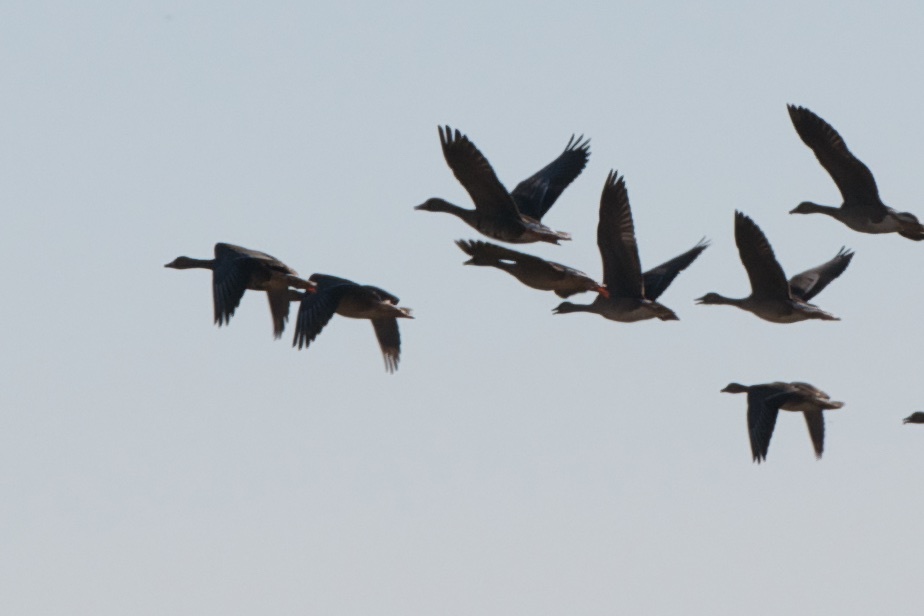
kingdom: Animalia
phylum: Chordata
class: Aves
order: Anseriformes
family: Anatidae
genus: Anser
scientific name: Anser albifrons
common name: Greater white-fronted goose
